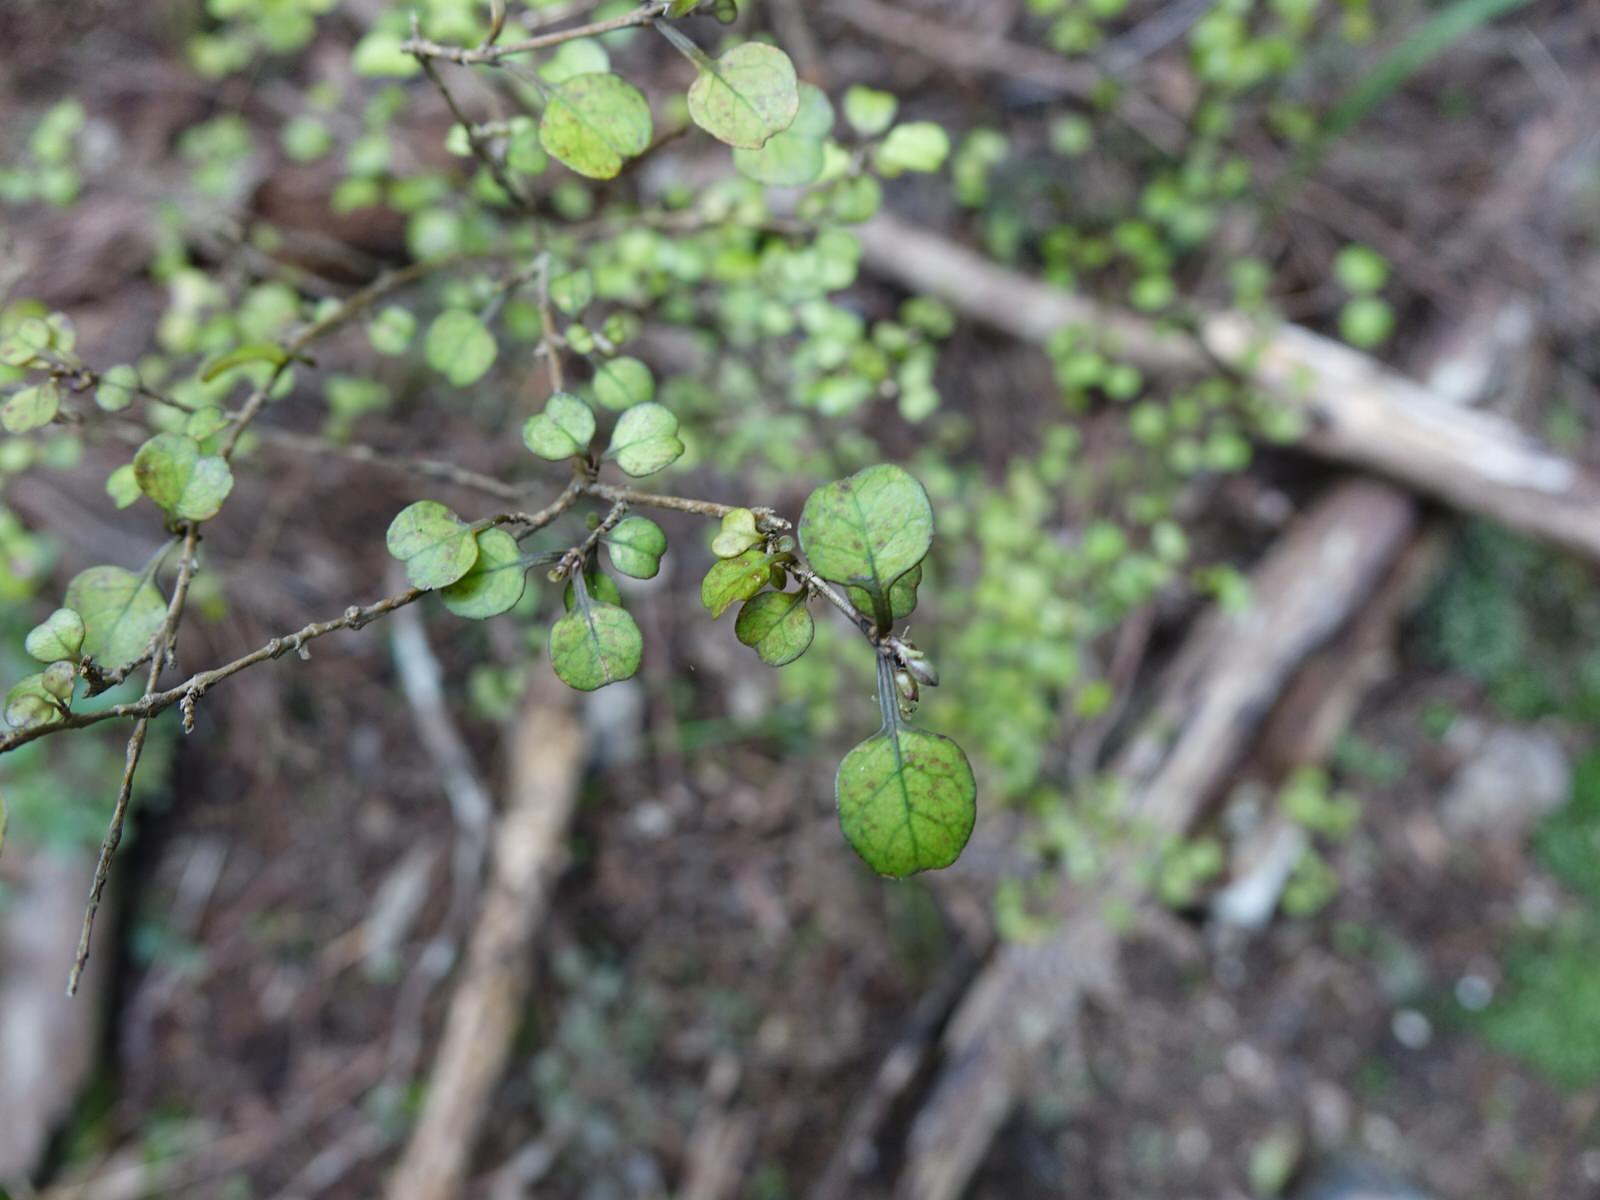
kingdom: Plantae
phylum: Tracheophyta
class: Magnoliopsida
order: Gentianales
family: Rubiaceae
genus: Coprosma
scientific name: Coprosma spathulata
